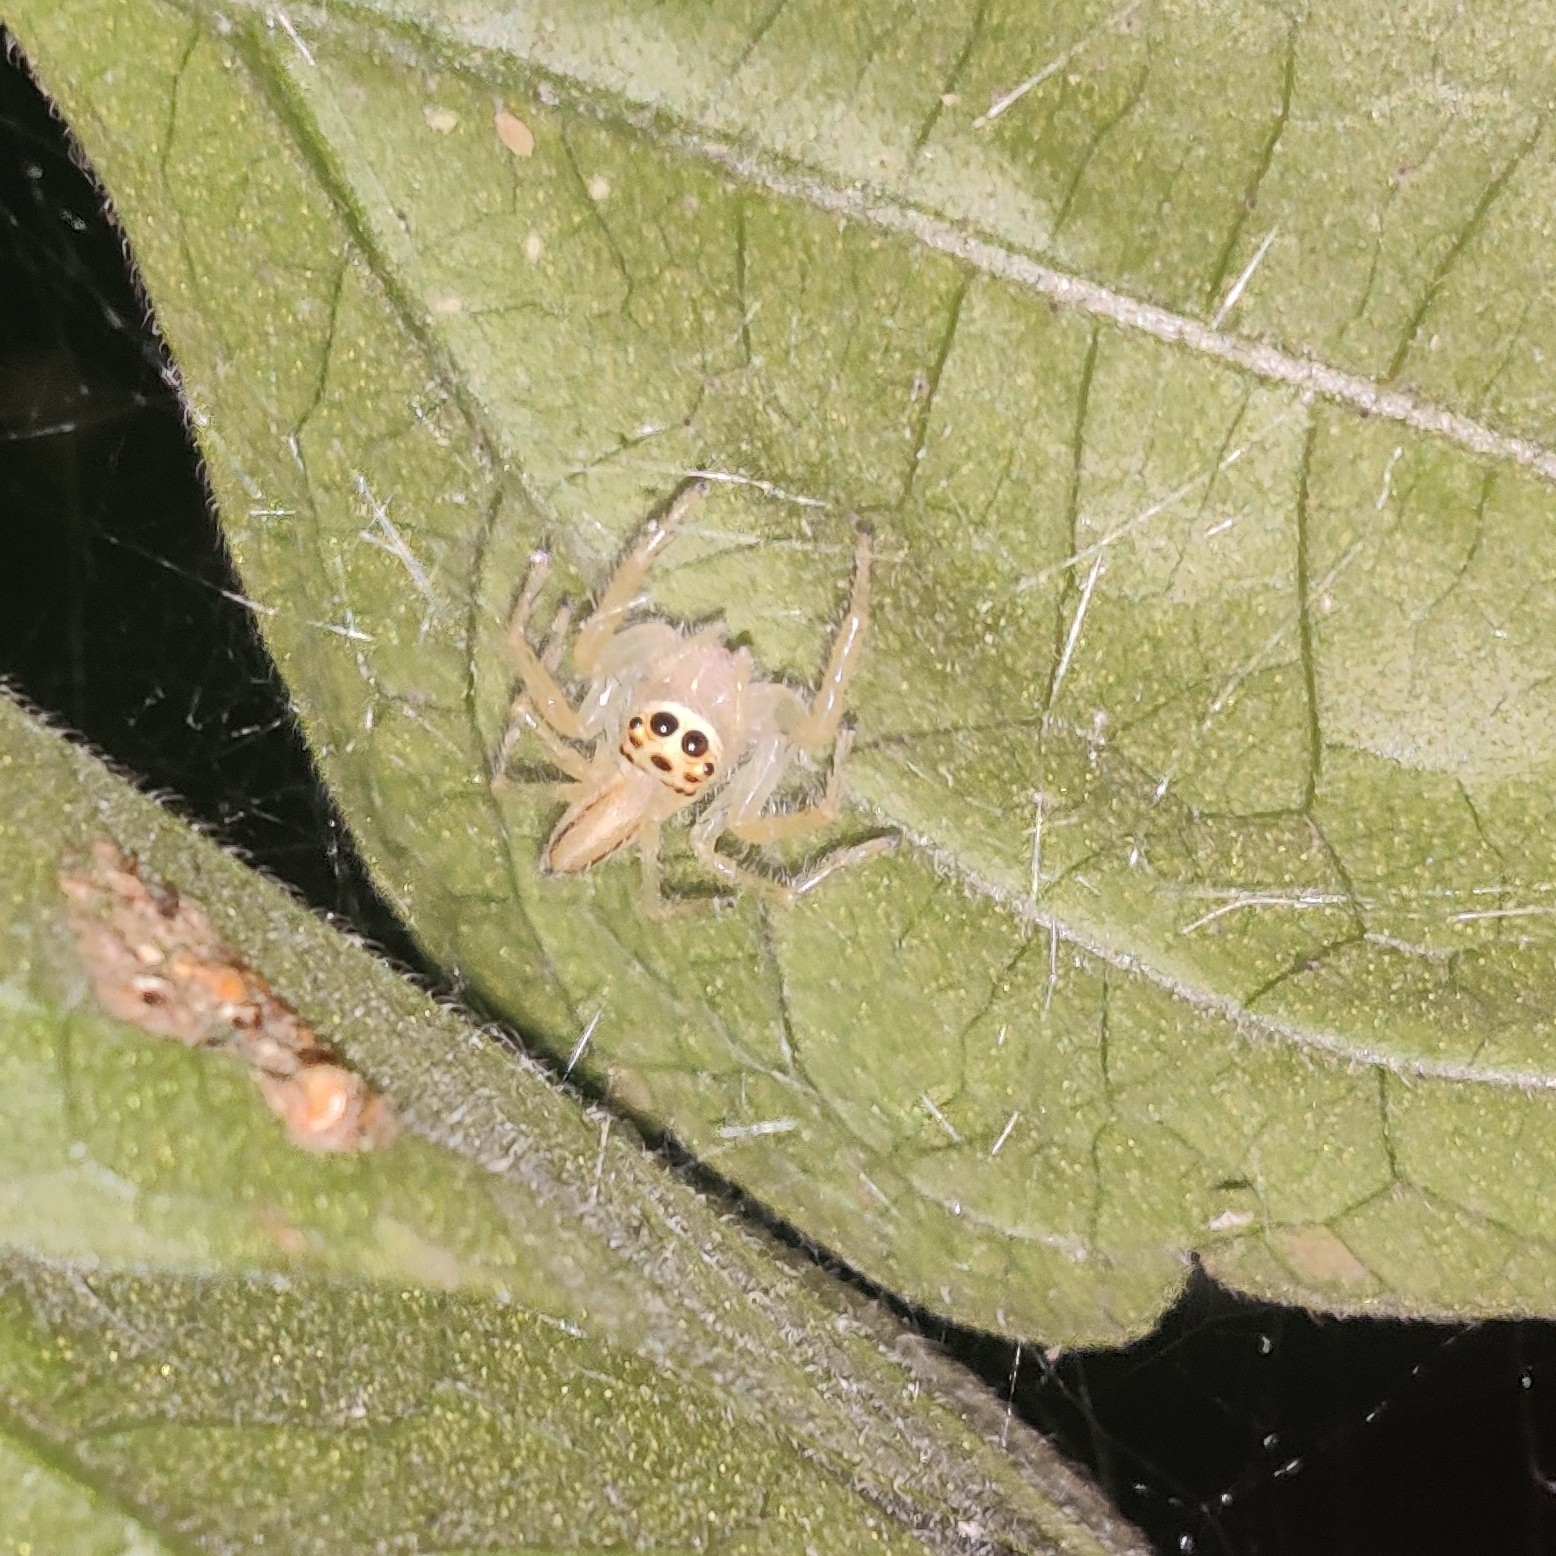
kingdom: Animalia
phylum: Arthropoda
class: Arachnida
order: Araneae
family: Salticidae
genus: Telamonia
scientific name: Telamonia dimidiata
